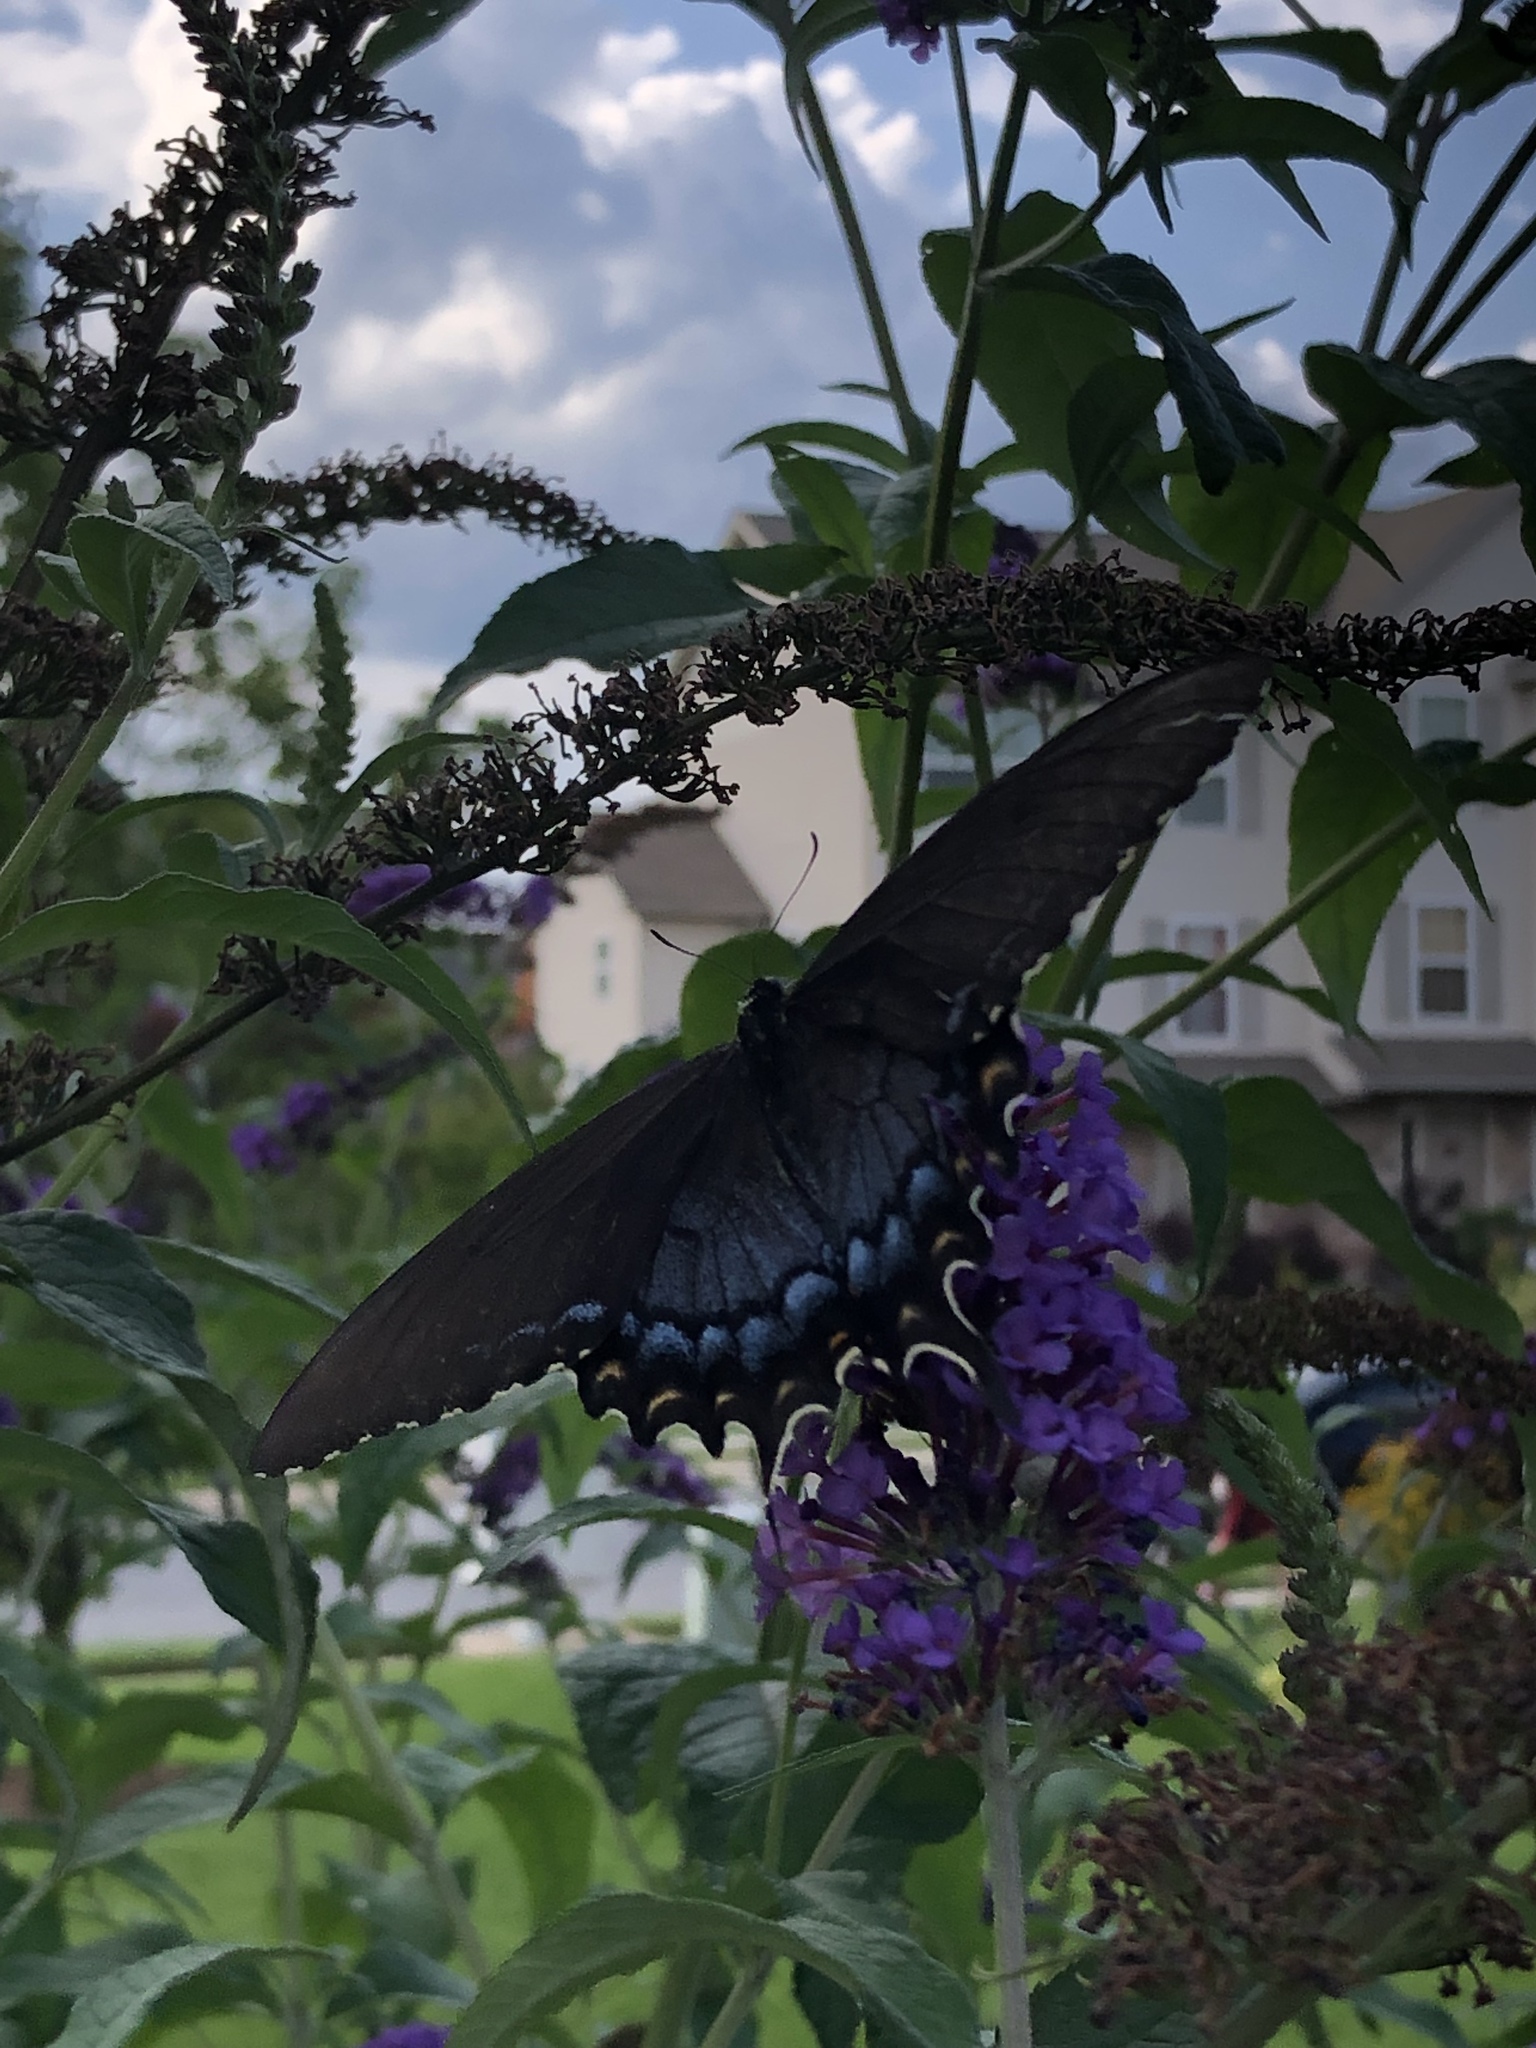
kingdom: Animalia
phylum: Arthropoda
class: Insecta
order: Lepidoptera
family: Papilionidae
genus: Papilio
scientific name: Papilio glaucus
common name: Tiger swallowtail
